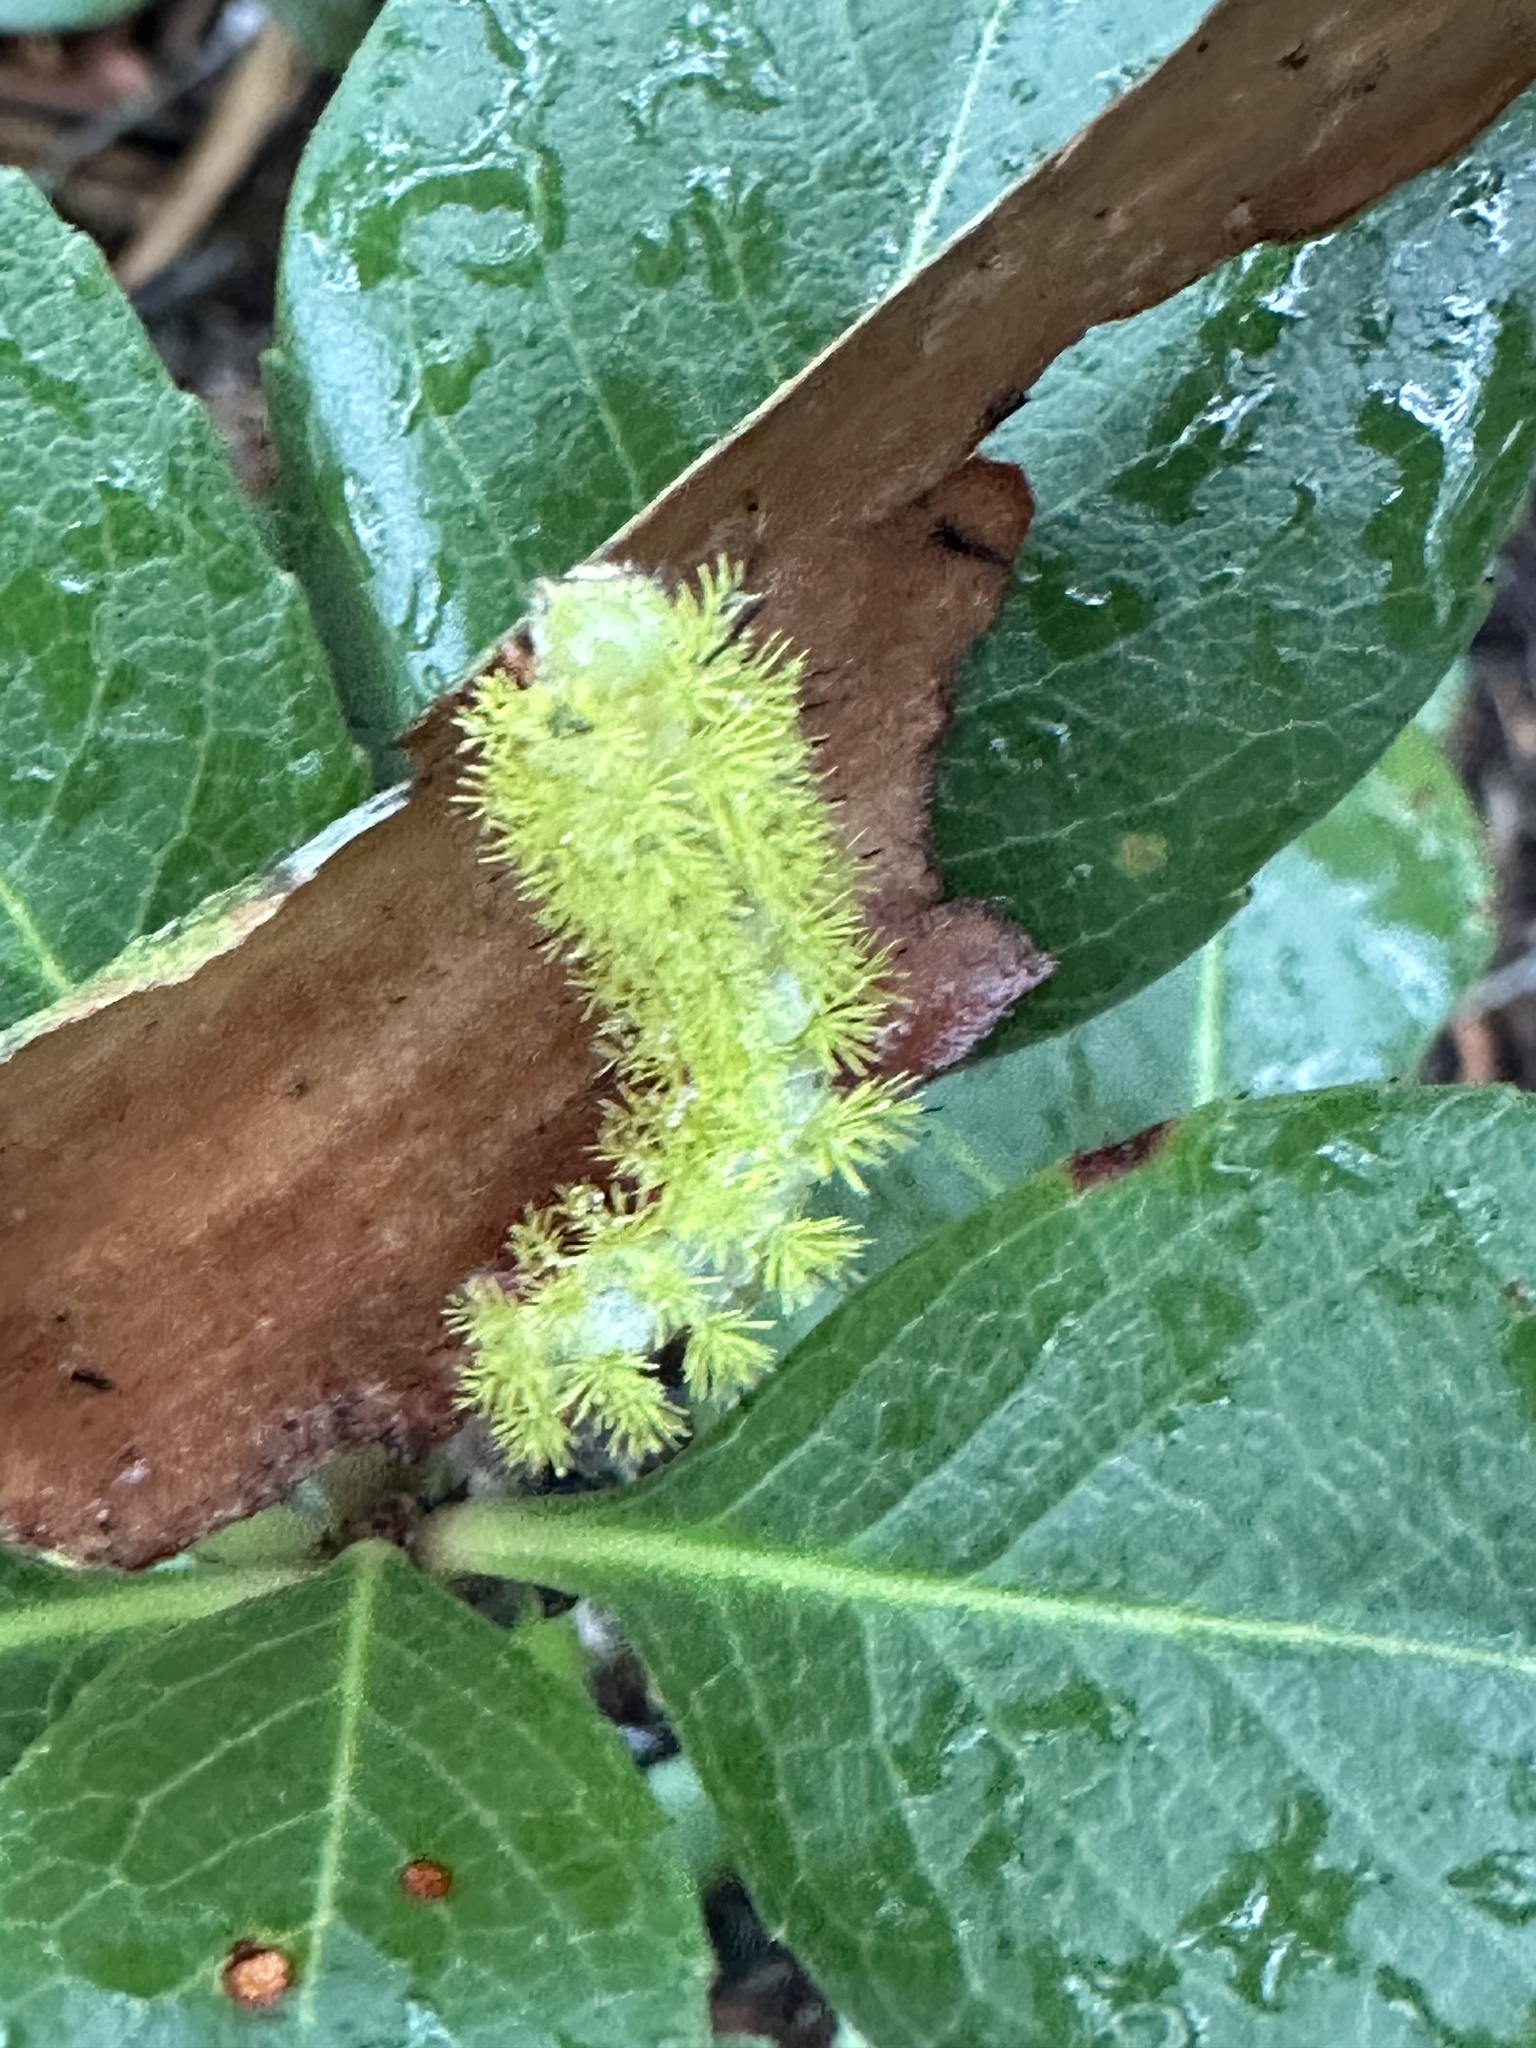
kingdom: Animalia
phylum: Arthropoda
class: Insecta
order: Lepidoptera
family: Saturniidae
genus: Automeris
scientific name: Automeris io
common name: Io moth
